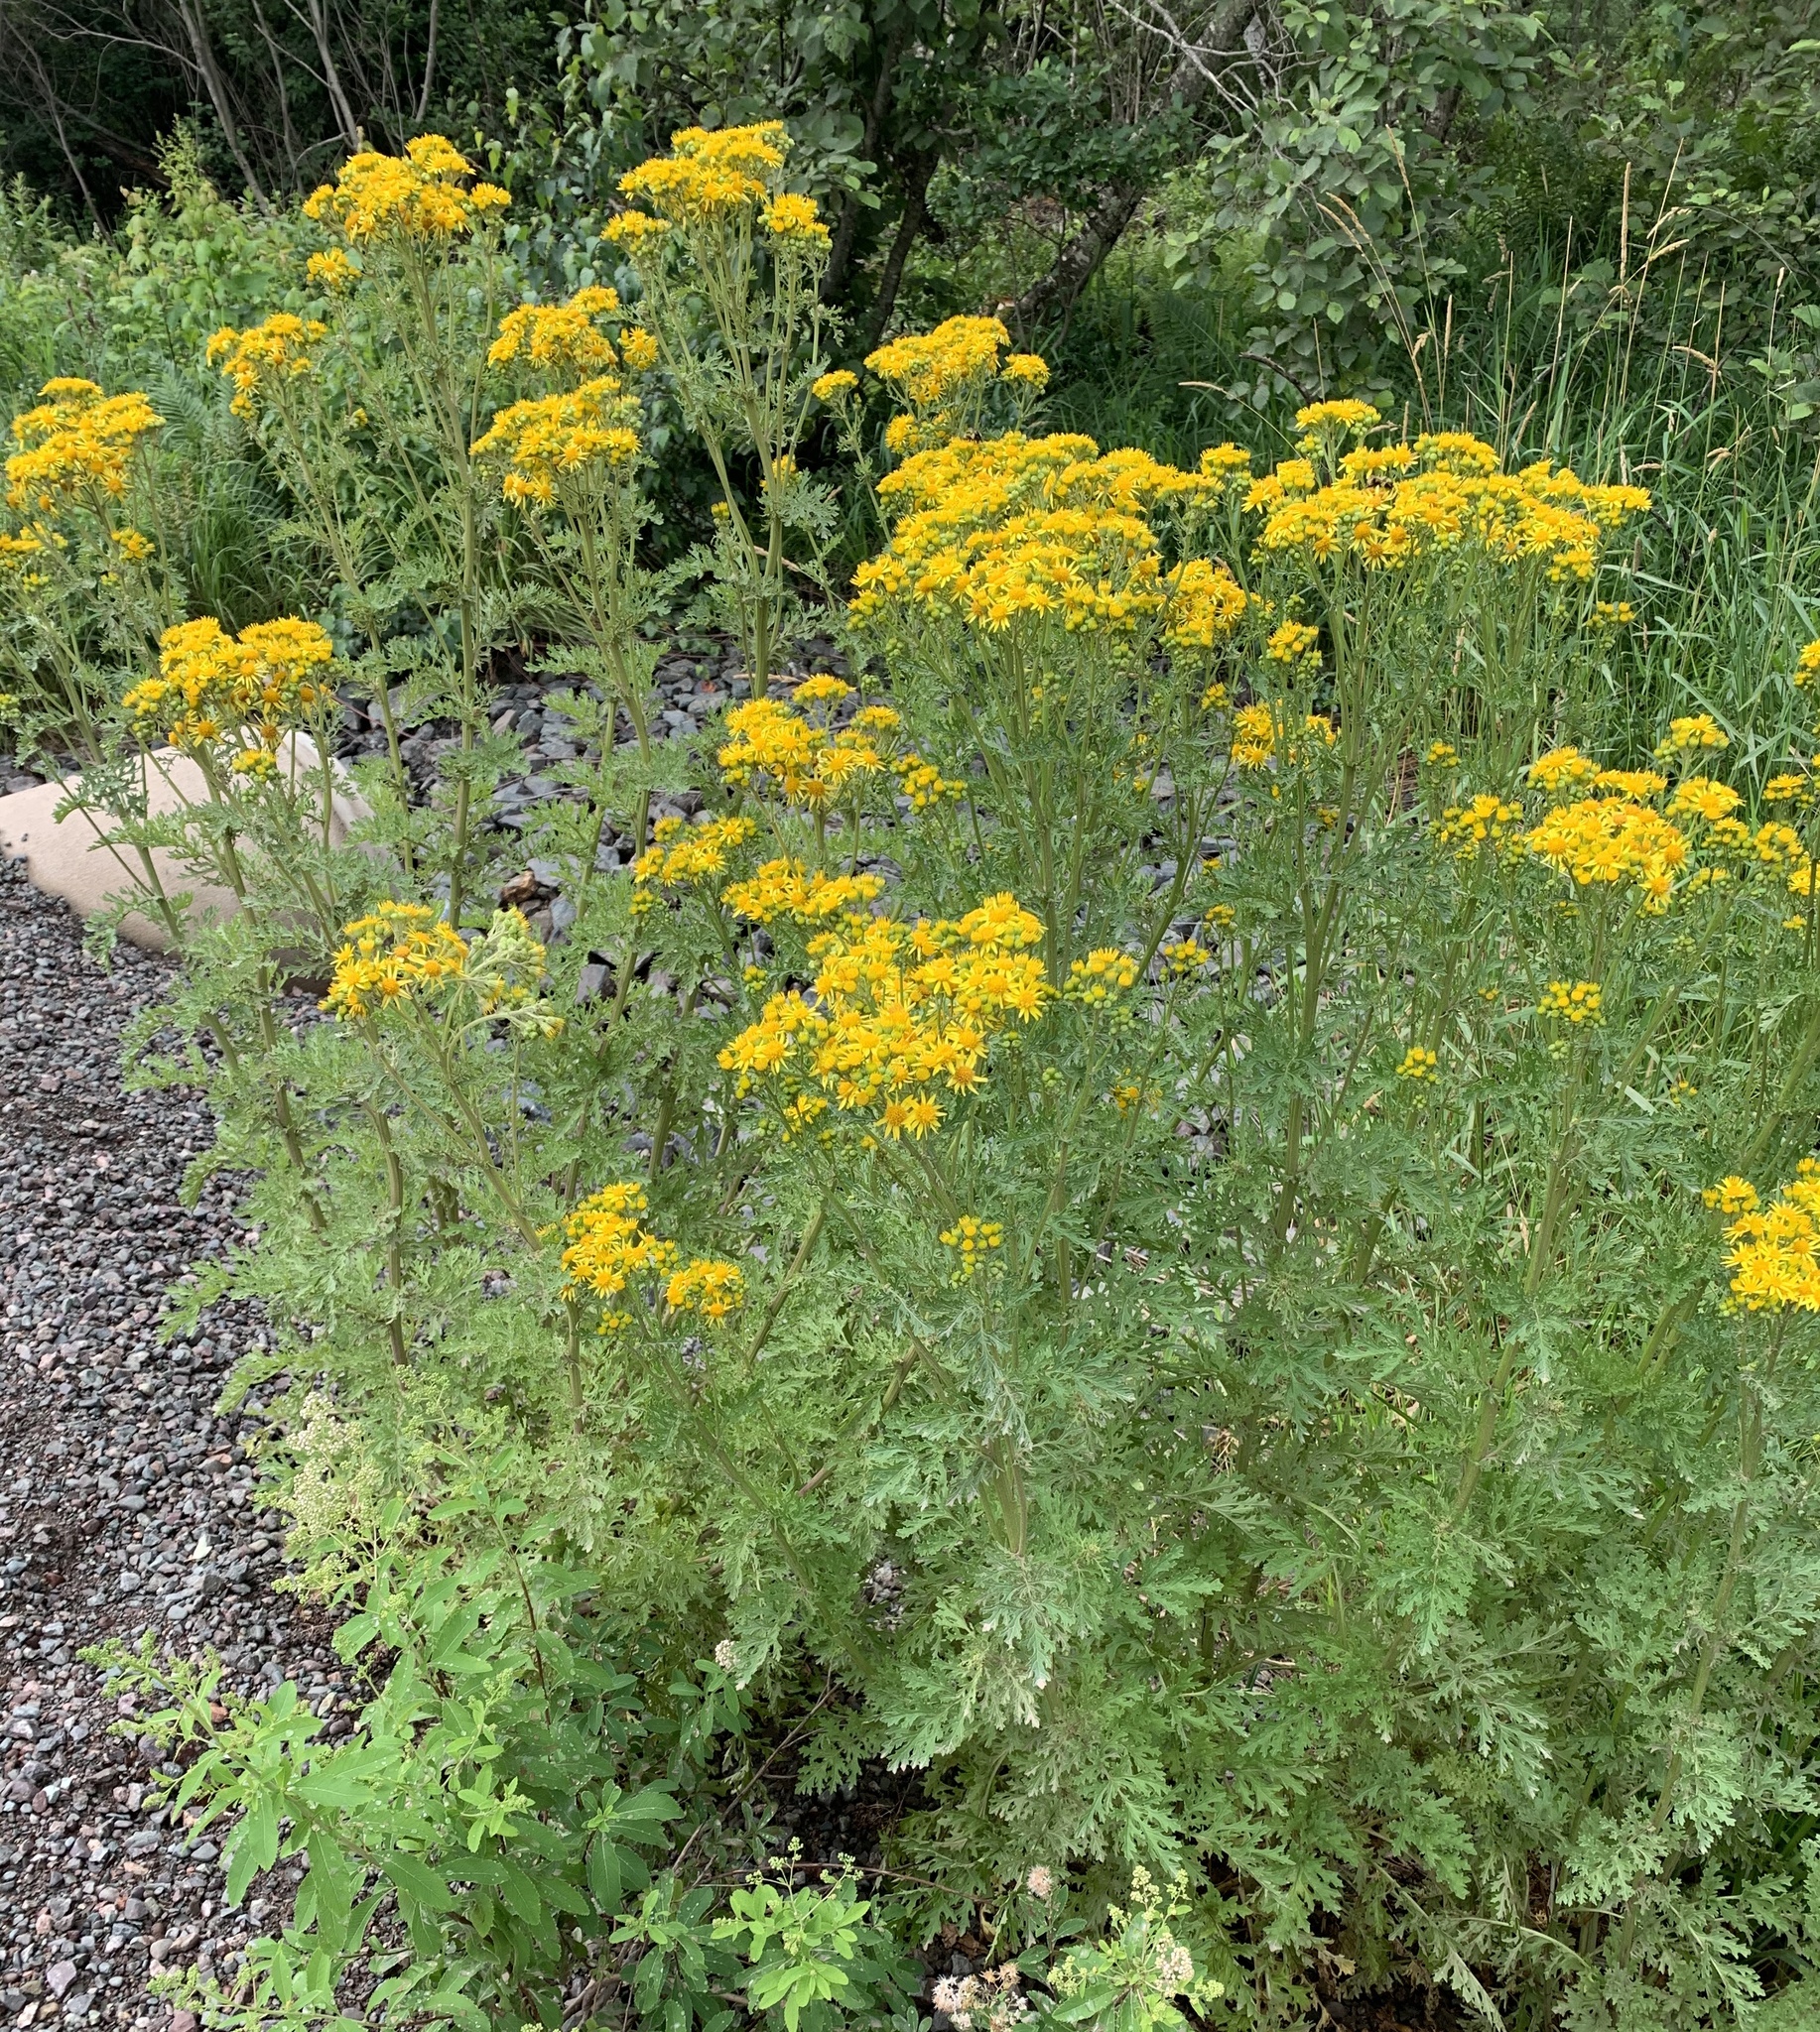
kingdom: Plantae
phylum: Tracheophyta
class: Magnoliopsida
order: Asterales
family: Asteraceae
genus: Jacobaea
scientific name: Jacobaea vulgaris
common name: Stinking willie
